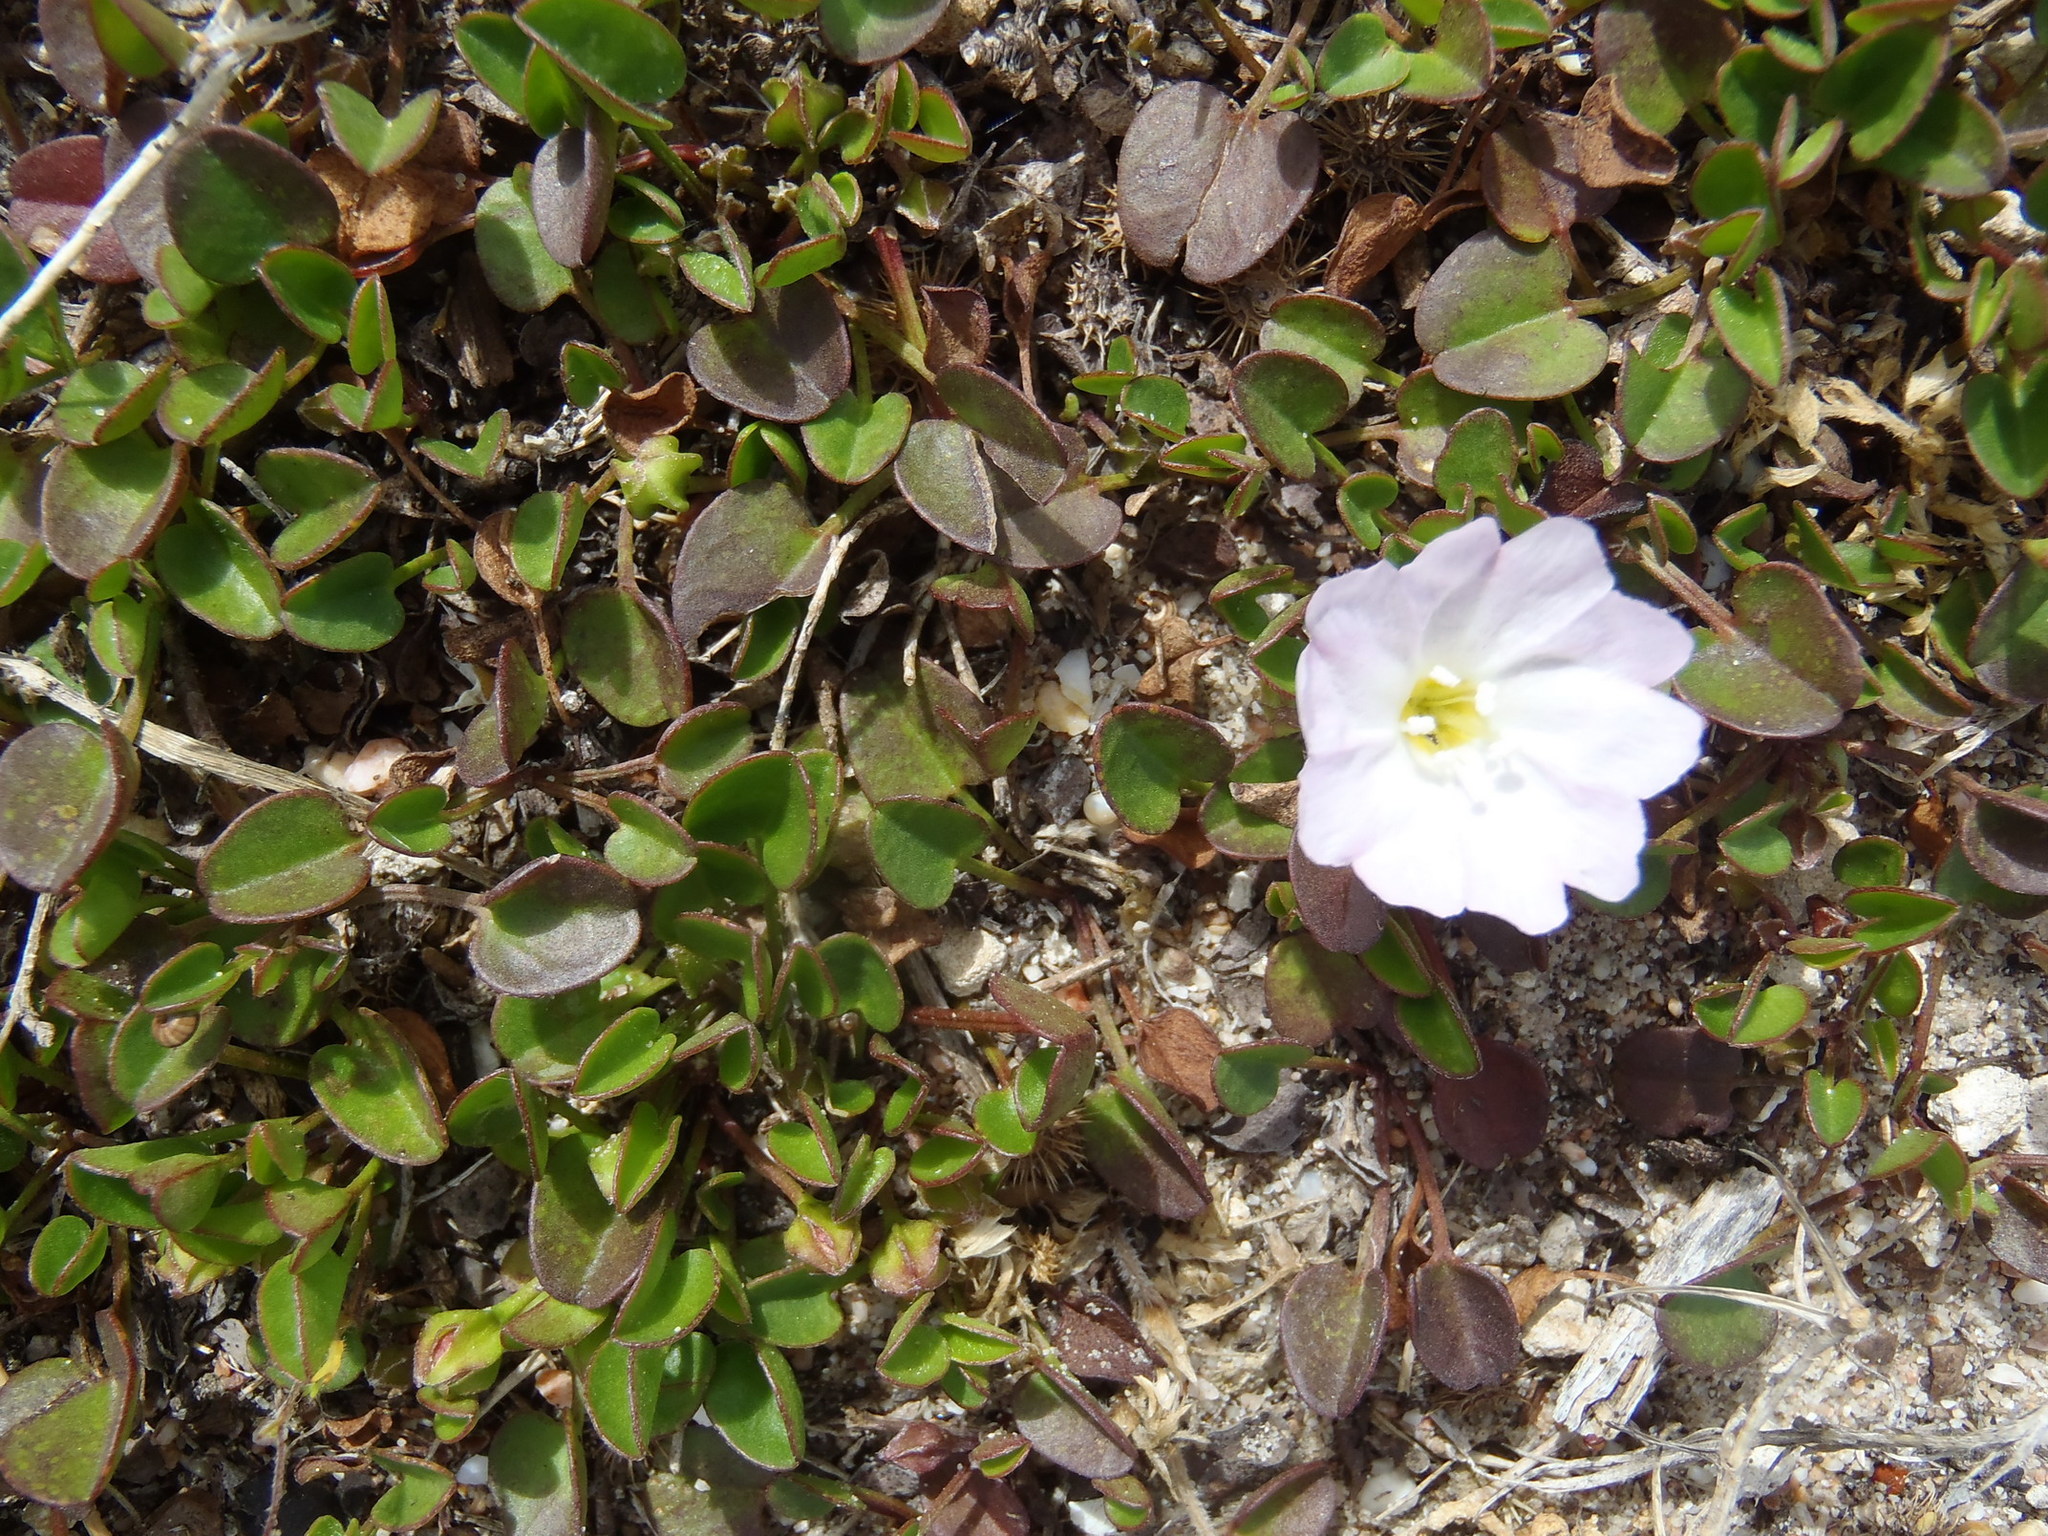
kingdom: Plantae
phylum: Tracheophyta
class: Magnoliopsida
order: Solanales
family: Convolvulaceae
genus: Falkia
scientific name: Falkia repens
